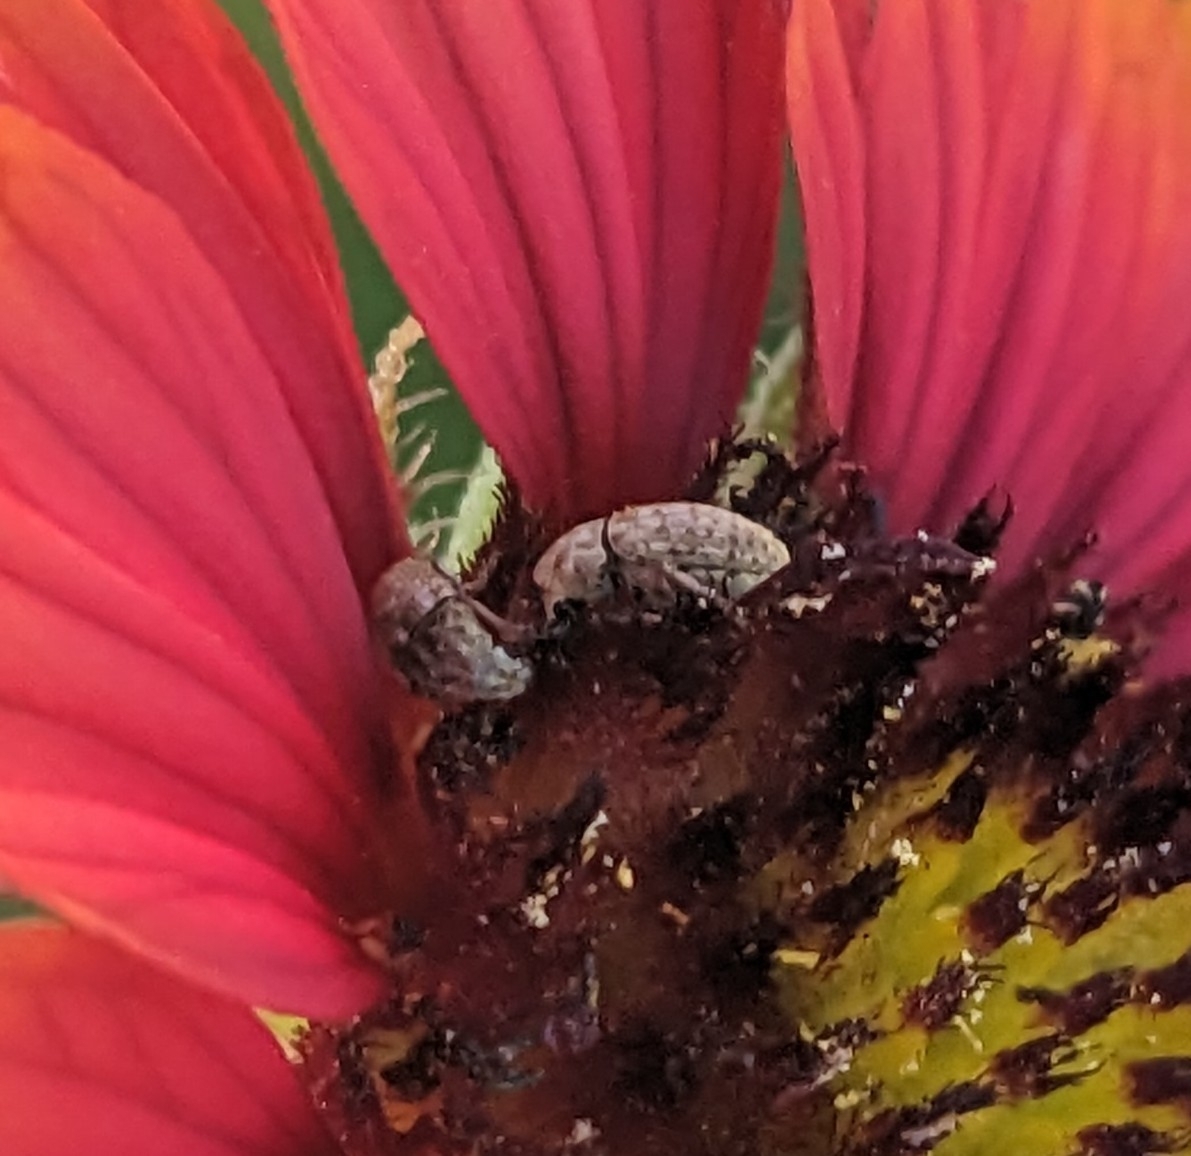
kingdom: Animalia
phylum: Arthropoda
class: Insecta
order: Coleoptera
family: Anthribidae
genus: Trigonorhinus
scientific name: Trigonorhinus limbatus
